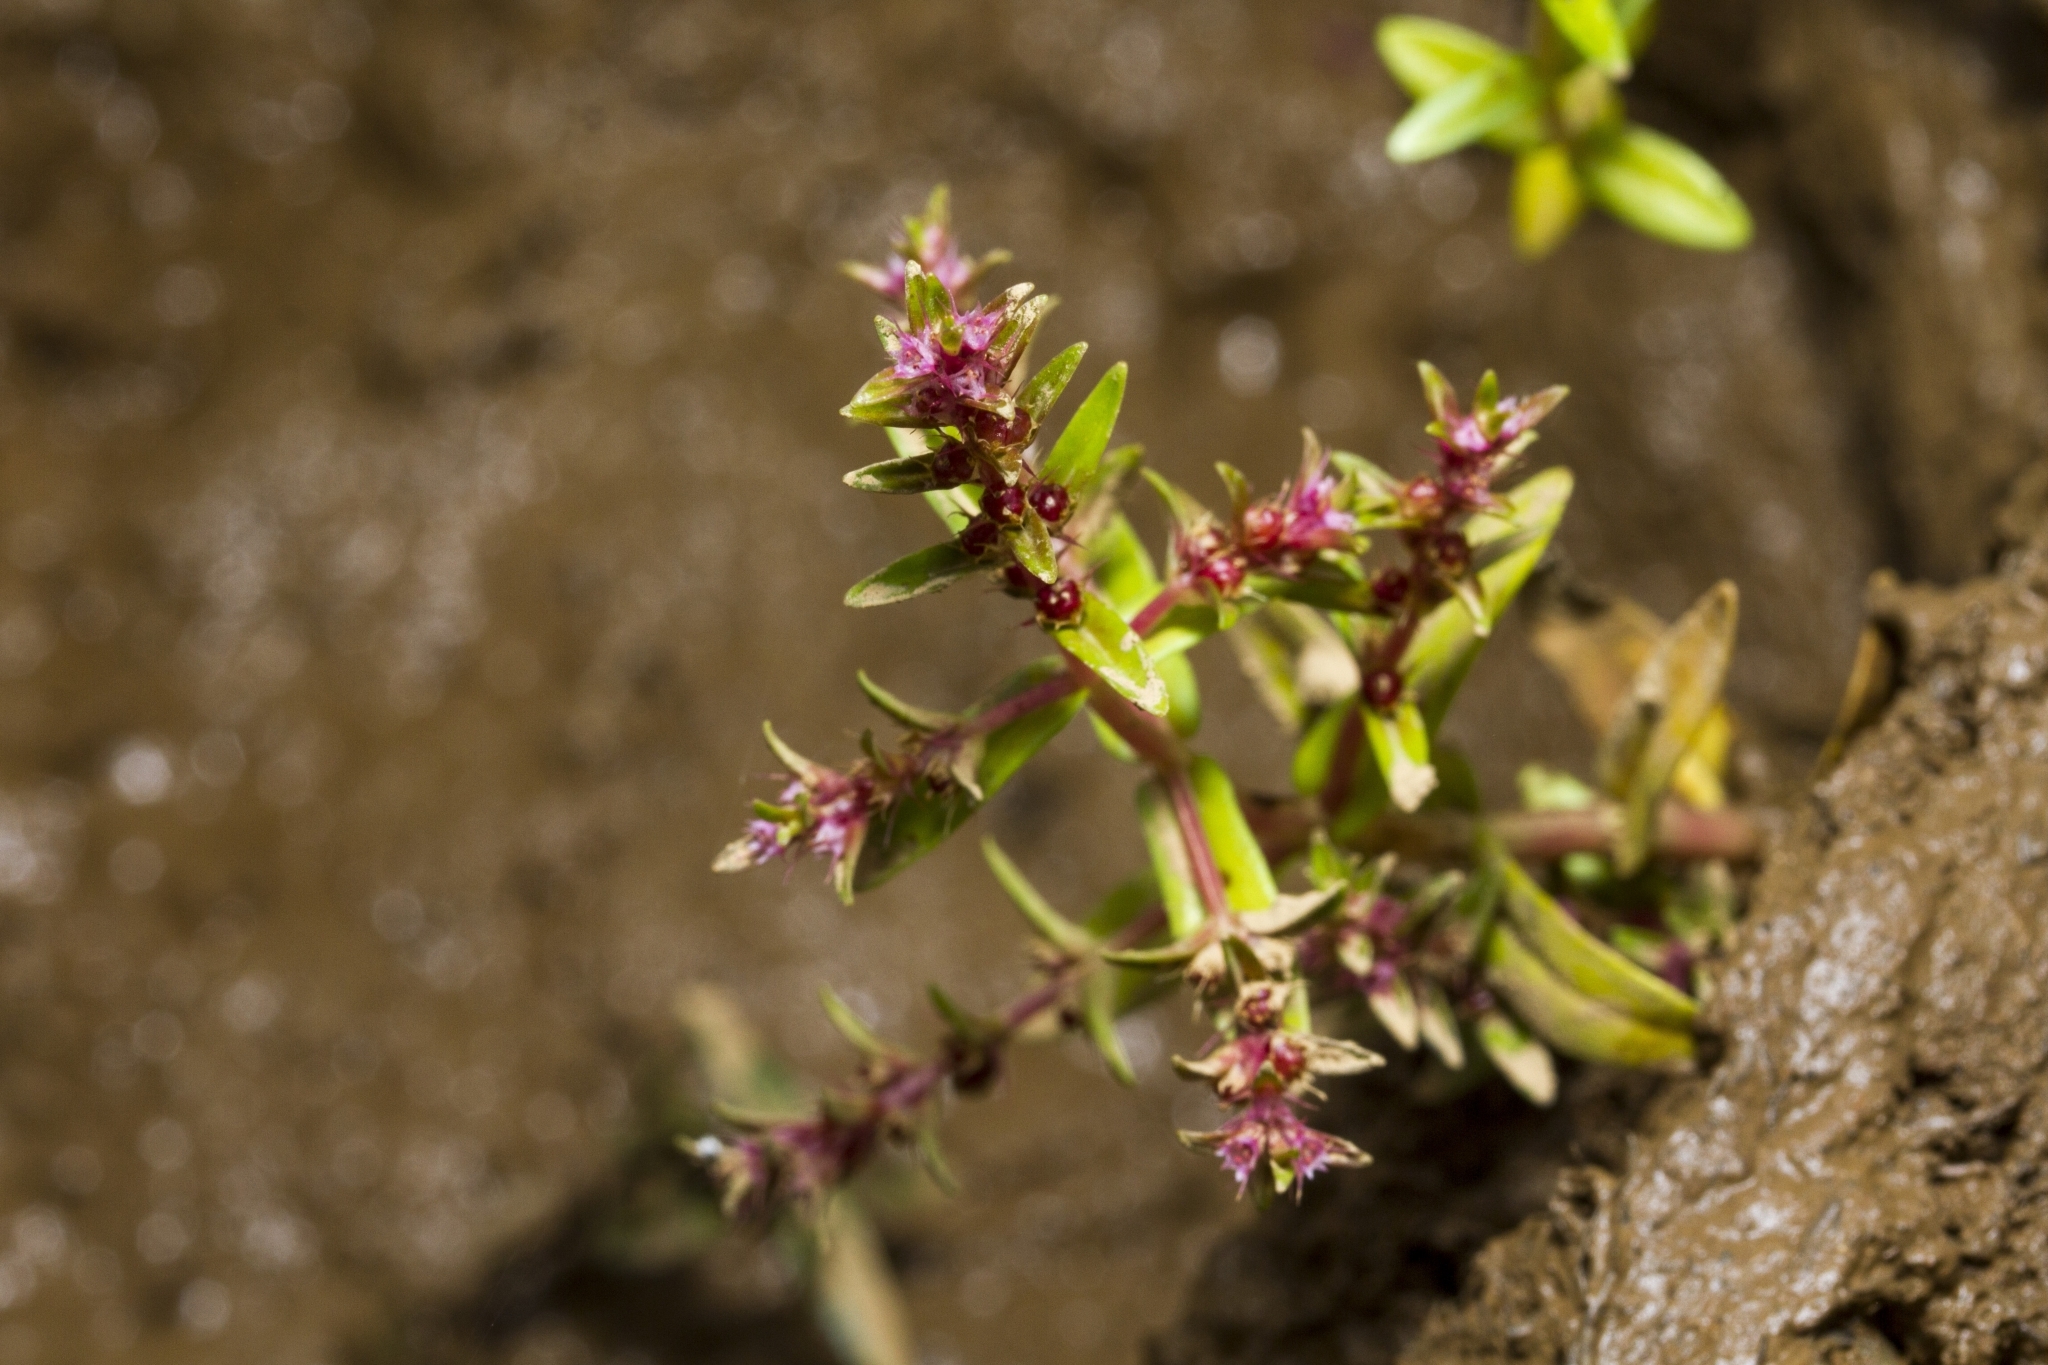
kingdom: Plantae
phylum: Tracheophyta
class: Magnoliopsida
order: Myrtales
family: Lythraceae
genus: Rotala
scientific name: Rotala biglandulosa
